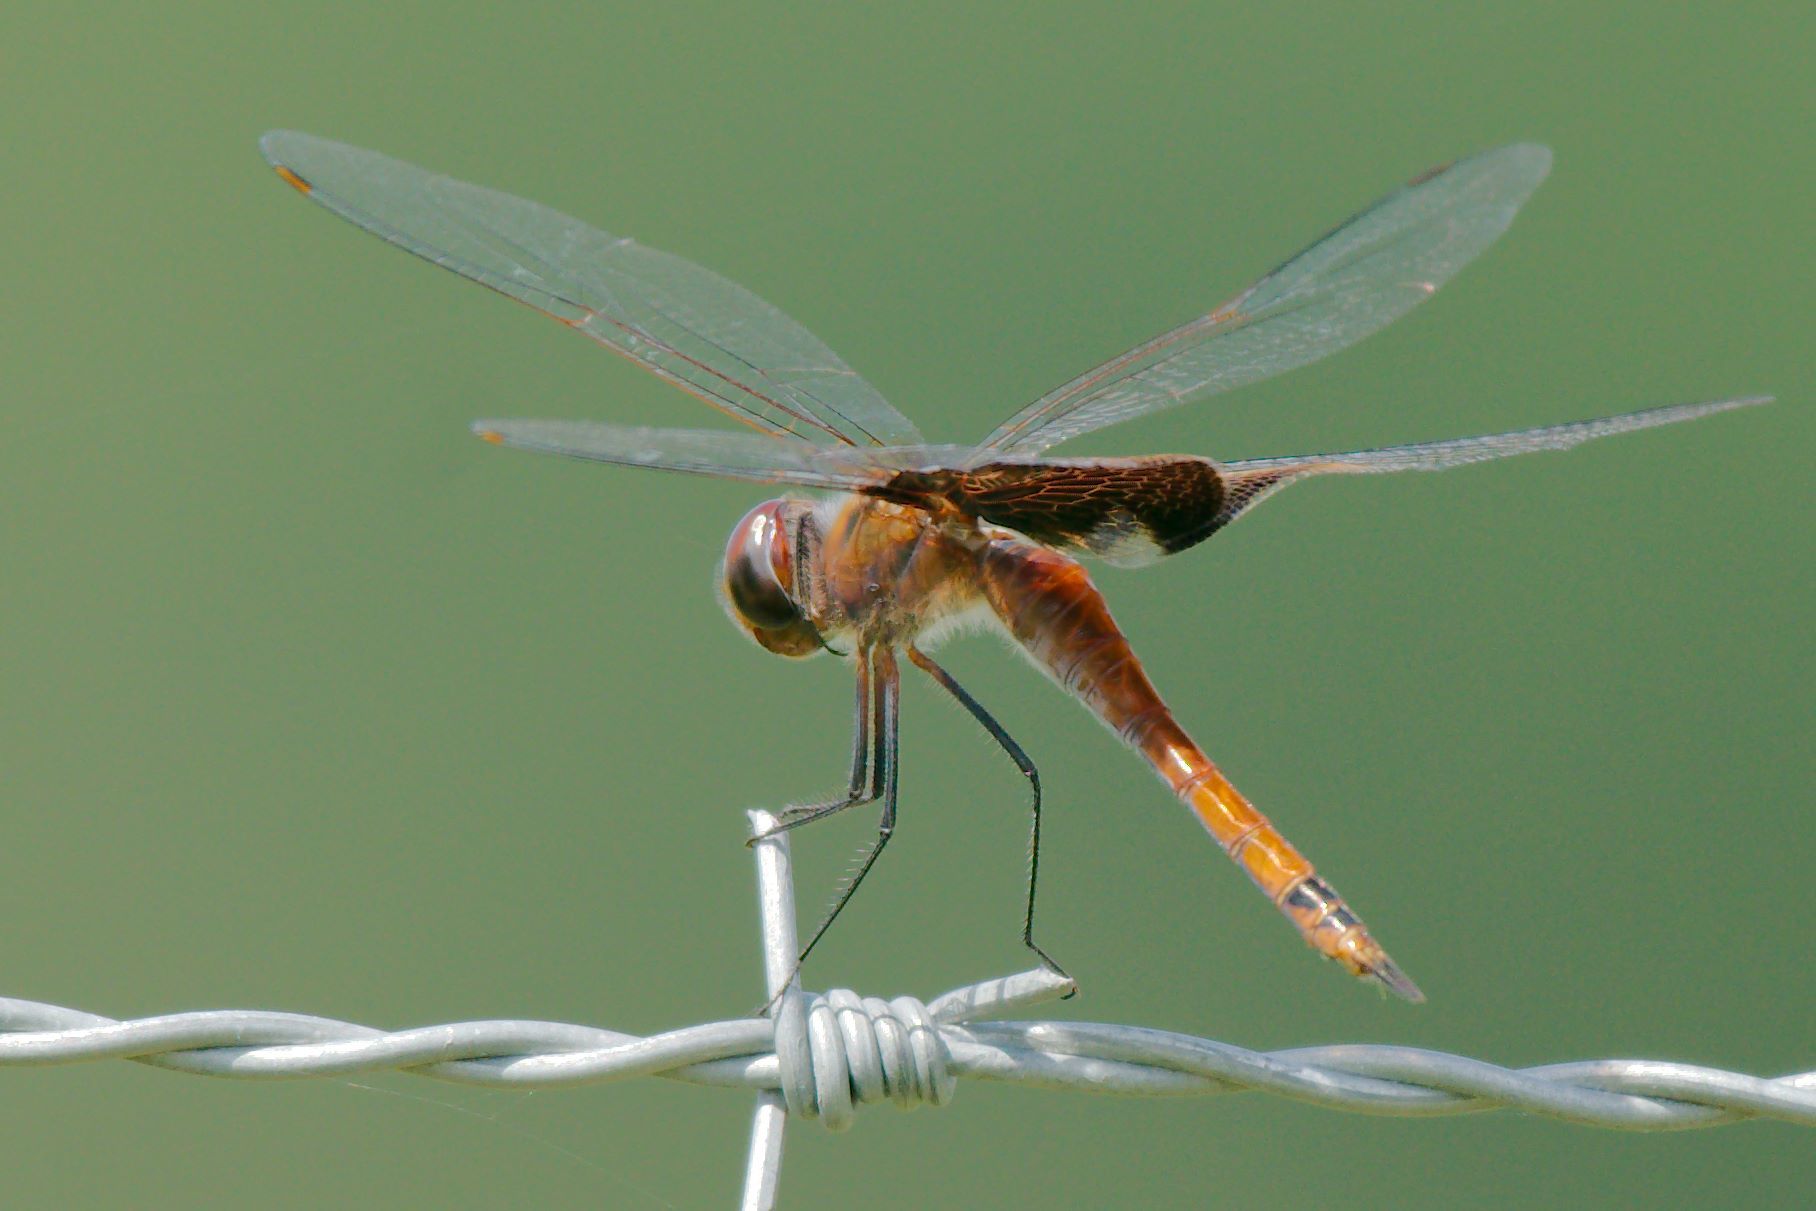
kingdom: Animalia
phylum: Arthropoda
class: Insecta
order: Odonata
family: Libellulidae
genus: Tramea
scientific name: Tramea carolina
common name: Carolina saddlebags
